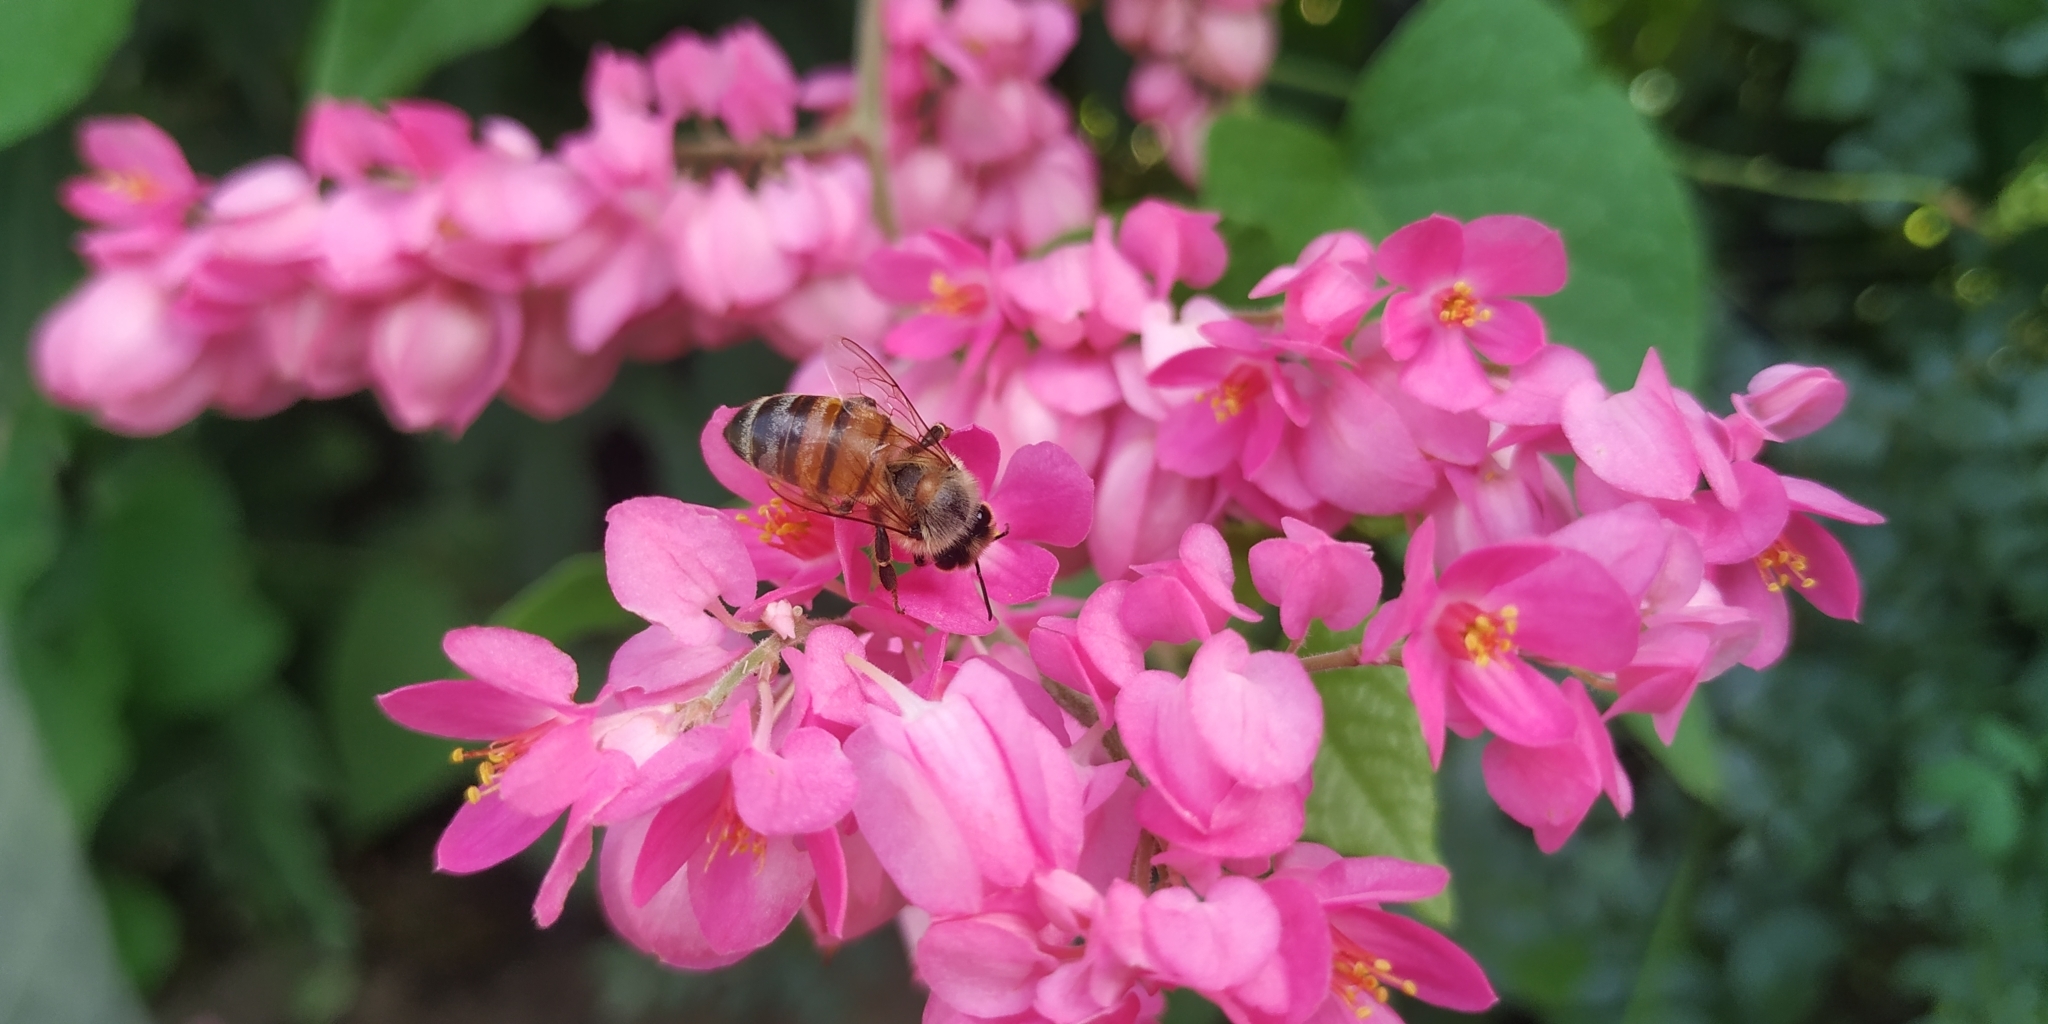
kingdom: Plantae
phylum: Tracheophyta
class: Magnoliopsida
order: Caryophyllales
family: Polygonaceae
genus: Antigonon
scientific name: Antigonon leptopus
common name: Coral vine
